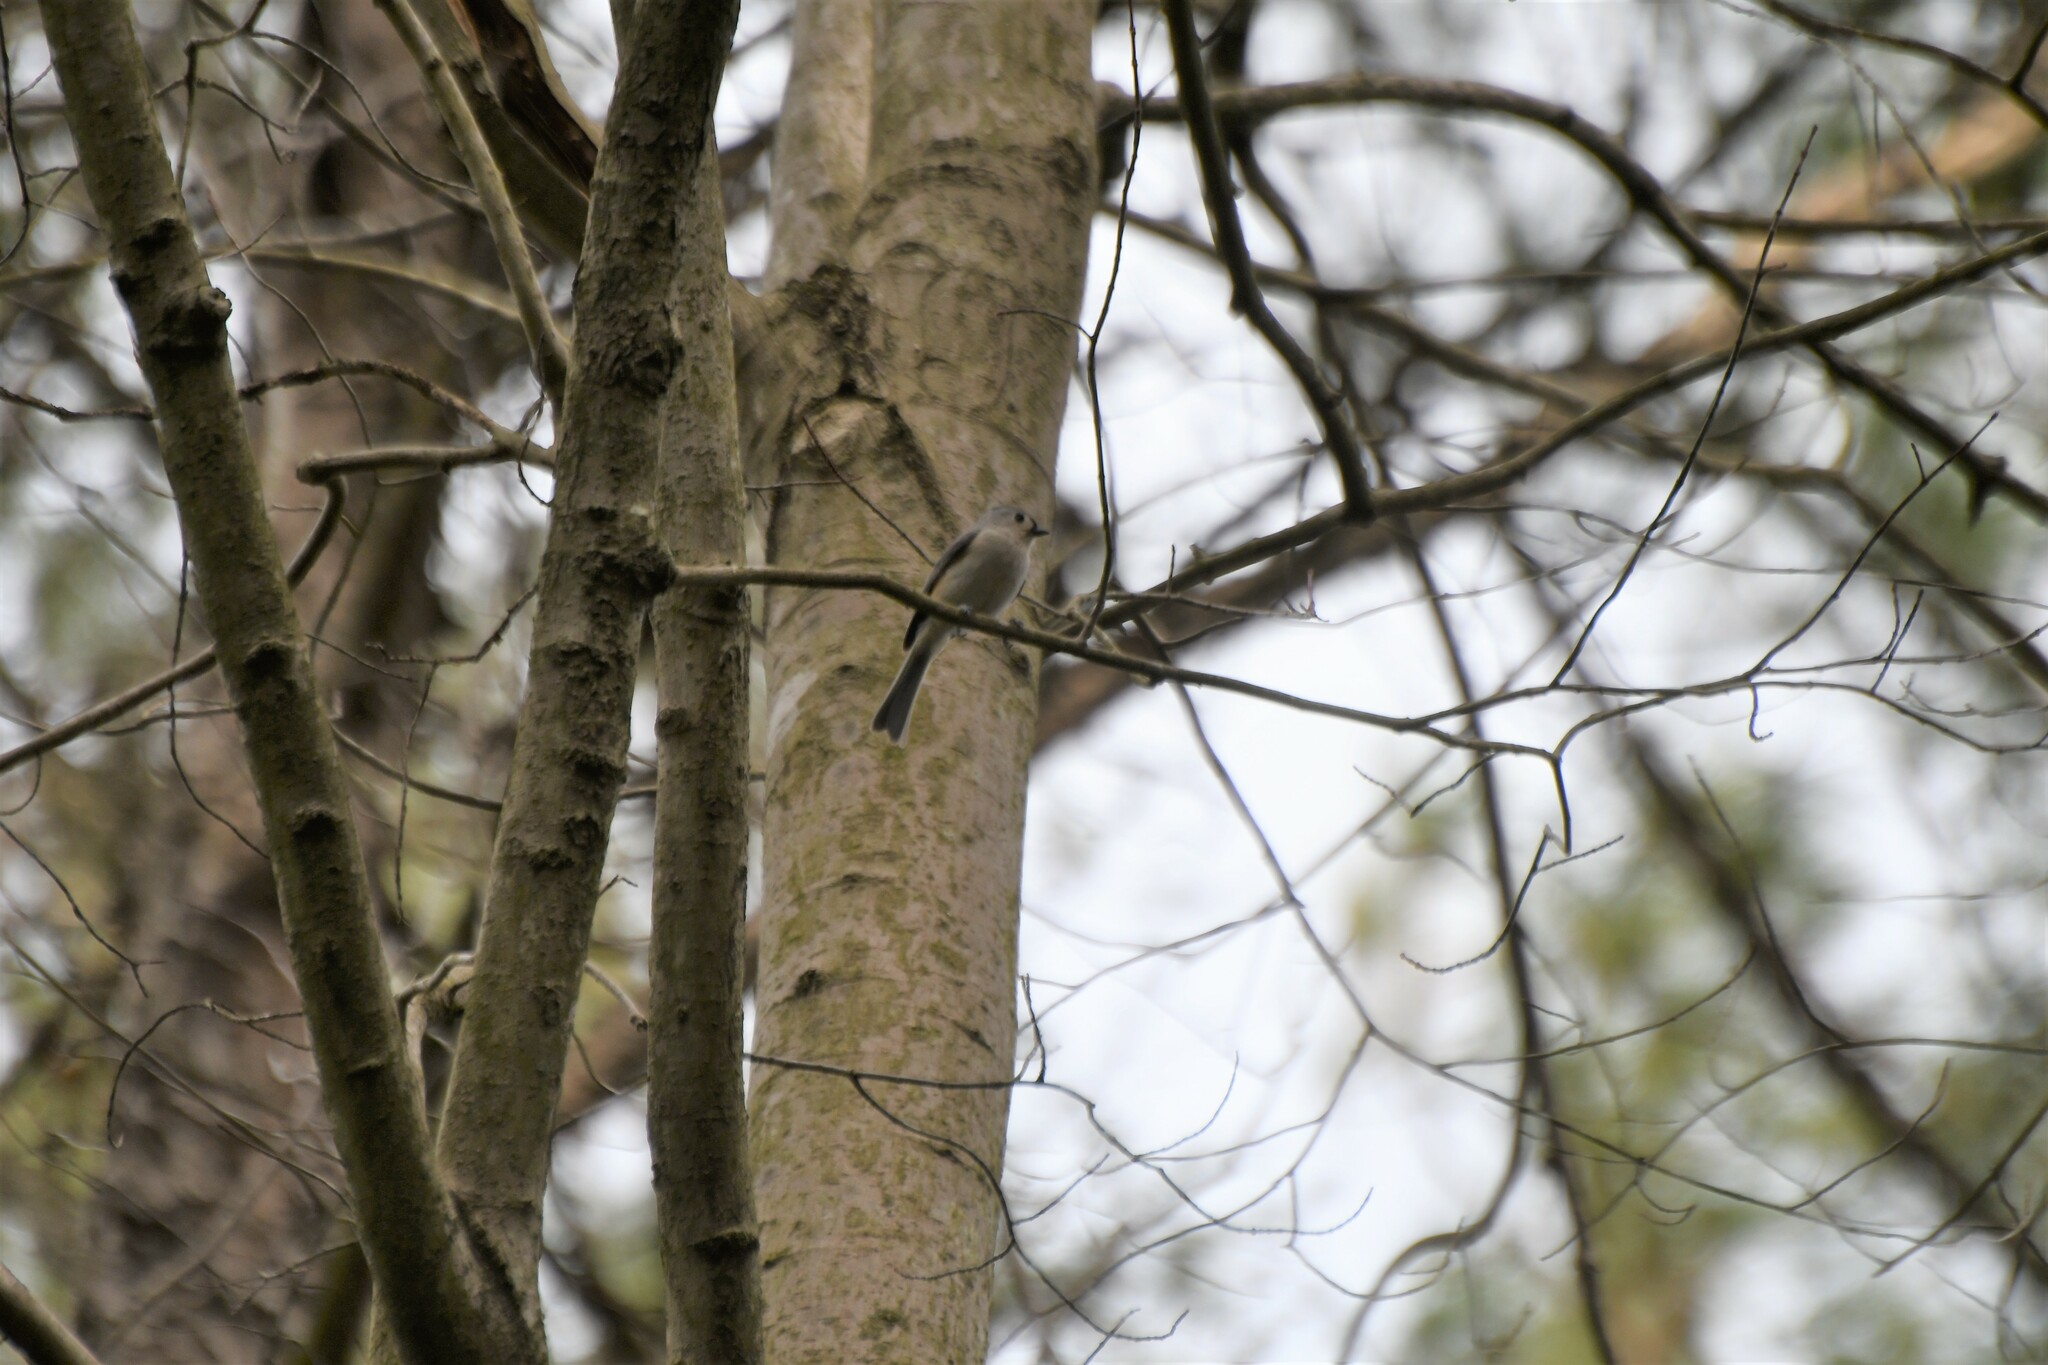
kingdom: Animalia
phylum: Chordata
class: Aves
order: Passeriformes
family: Paridae
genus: Baeolophus
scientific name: Baeolophus bicolor
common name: Tufted titmouse
